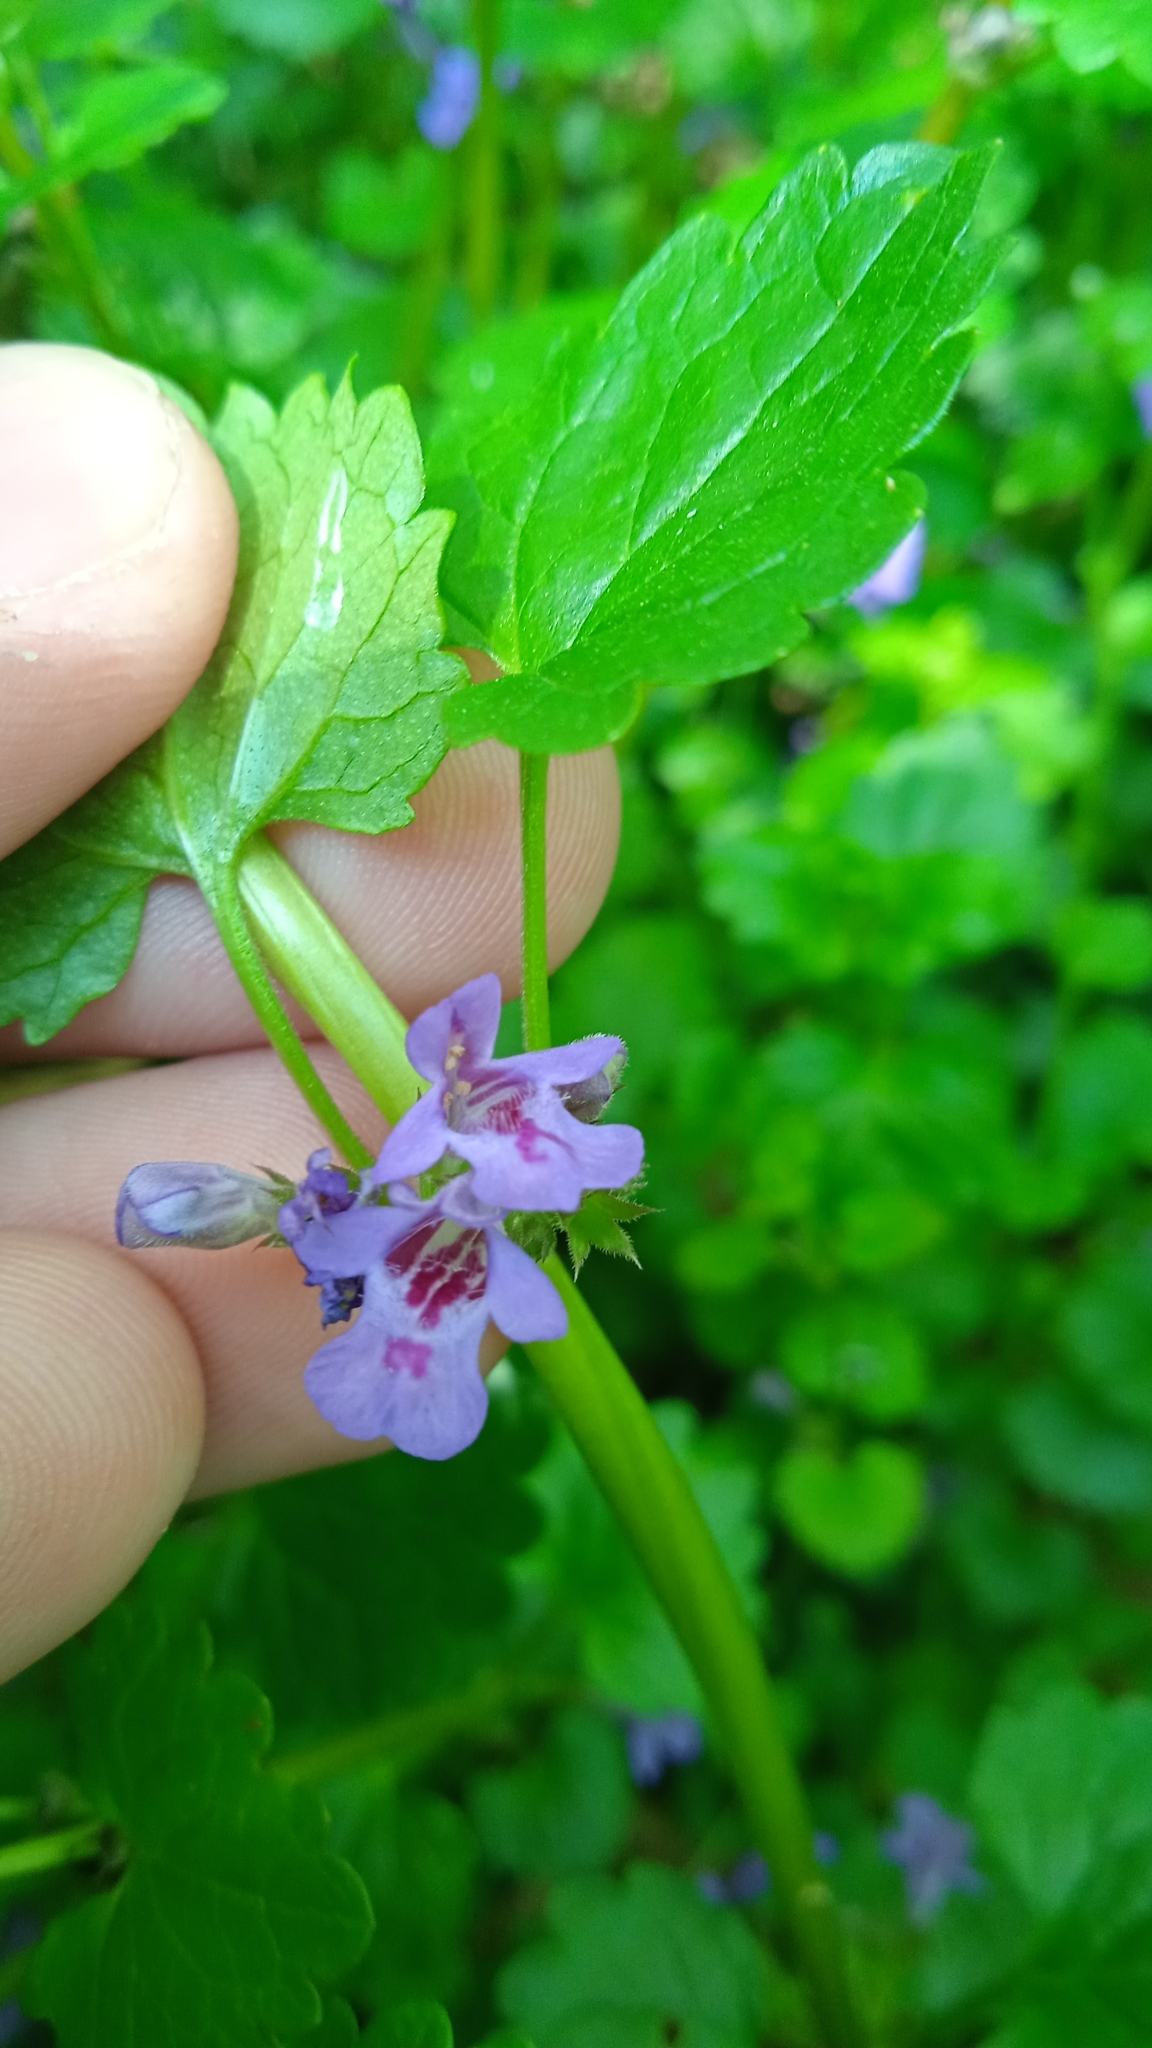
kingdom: Plantae
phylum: Tracheophyta
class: Magnoliopsida
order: Lamiales
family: Lamiaceae
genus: Glechoma
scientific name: Glechoma hederacea
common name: Ground ivy
